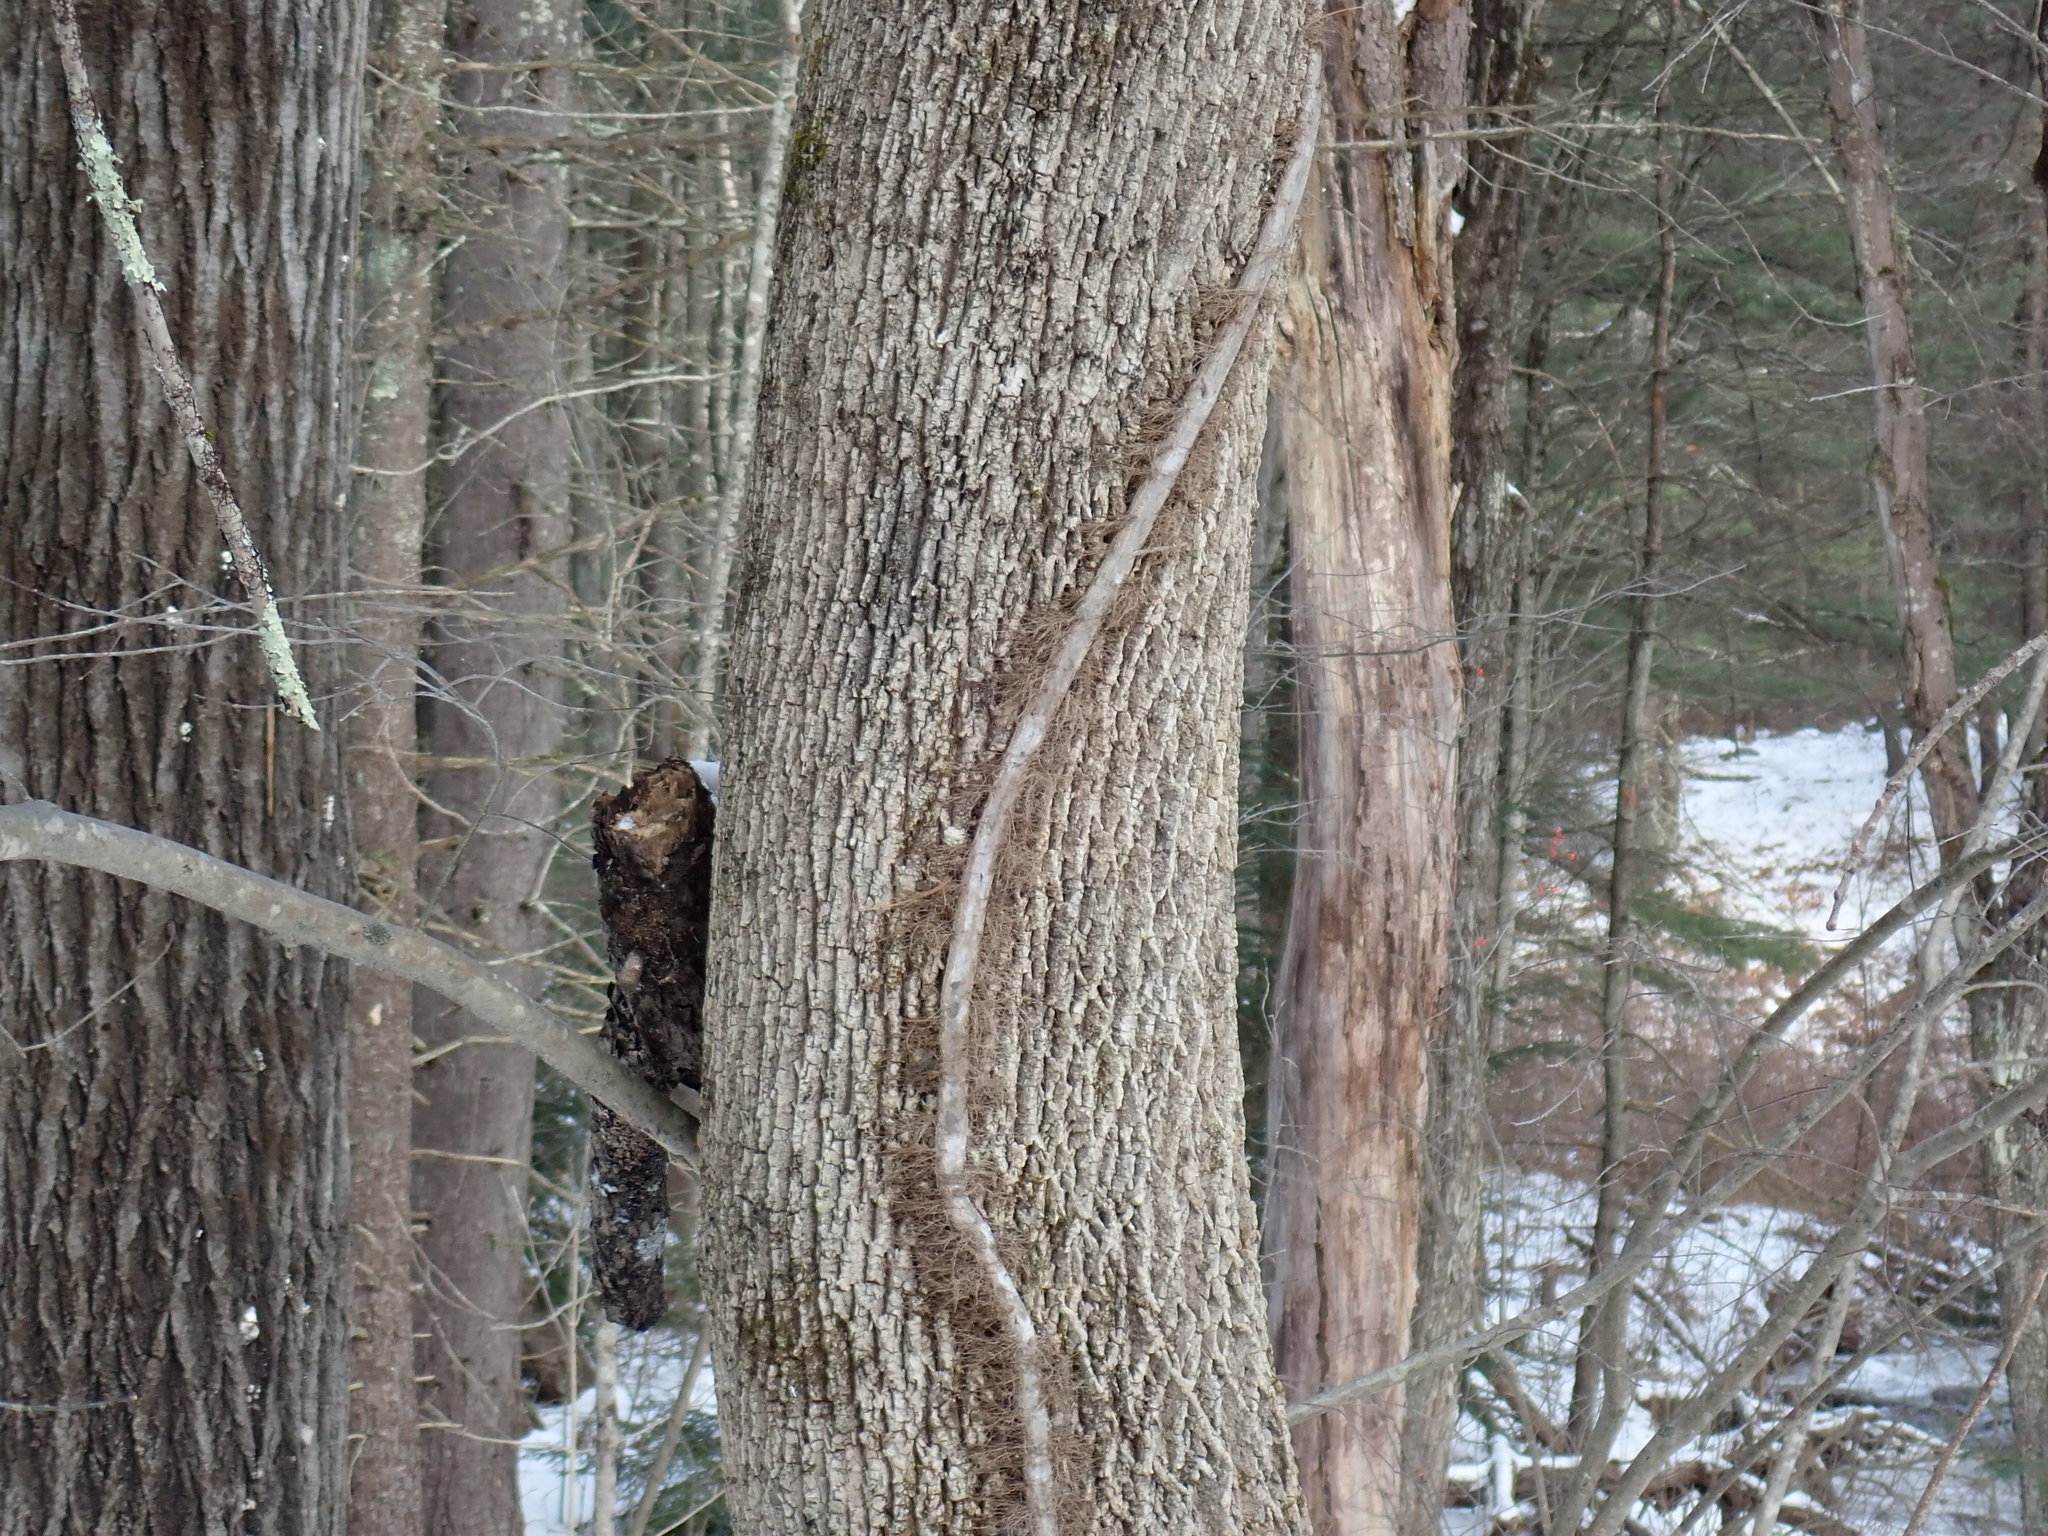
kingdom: Plantae
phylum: Tracheophyta
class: Magnoliopsida
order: Sapindales
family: Anacardiaceae
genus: Toxicodendron
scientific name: Toxicodendron radicans
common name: Poison ivy
